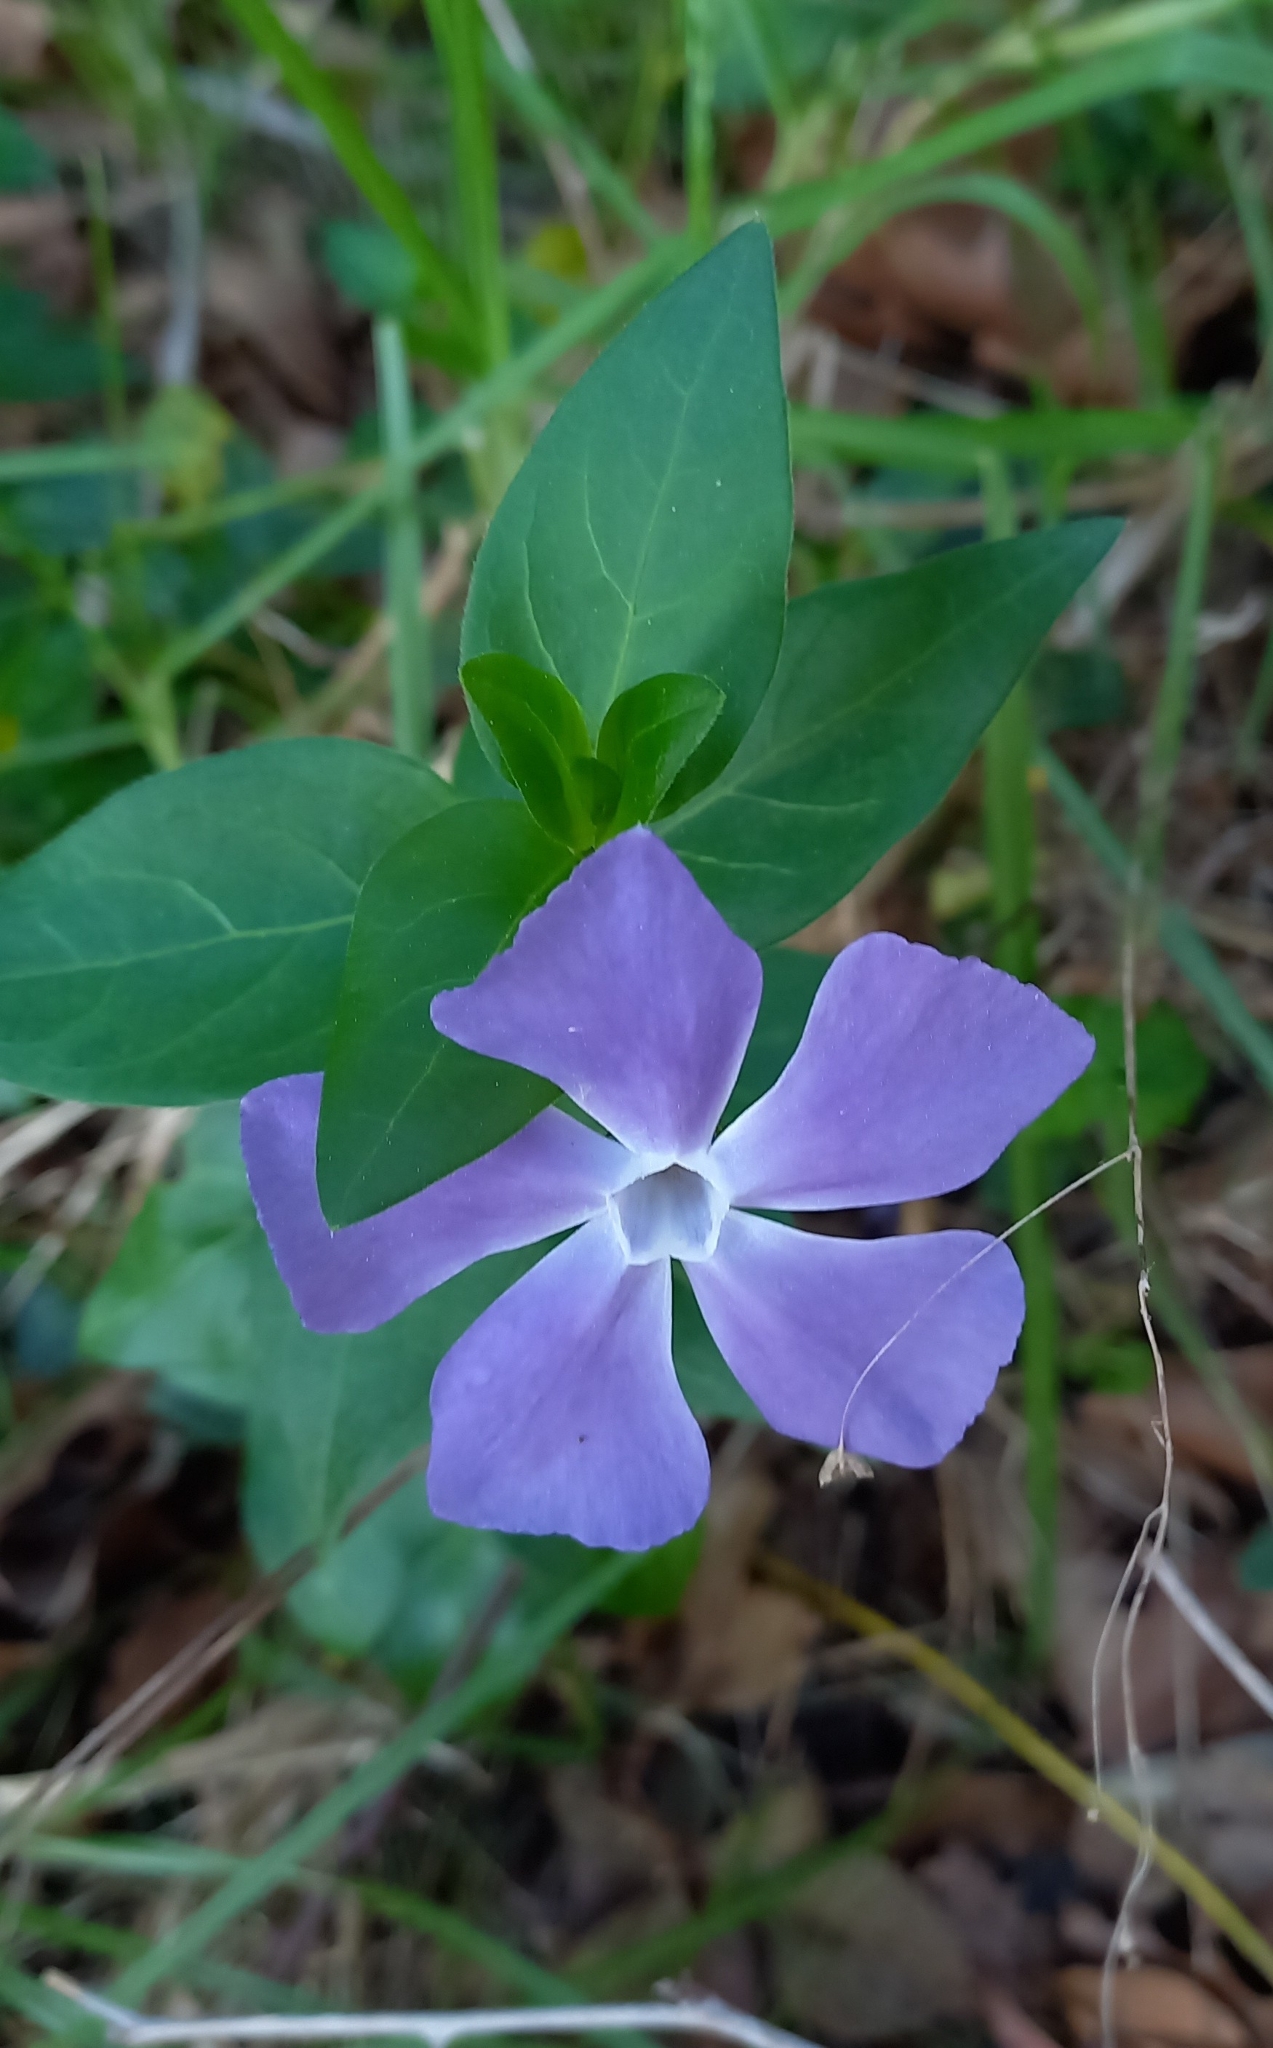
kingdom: Plantae
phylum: Tracheophyta
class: Magnoliopsida
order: Gentianales
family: Apocynaceae
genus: Vinca
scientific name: Vinca major
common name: Greater periwinkle
